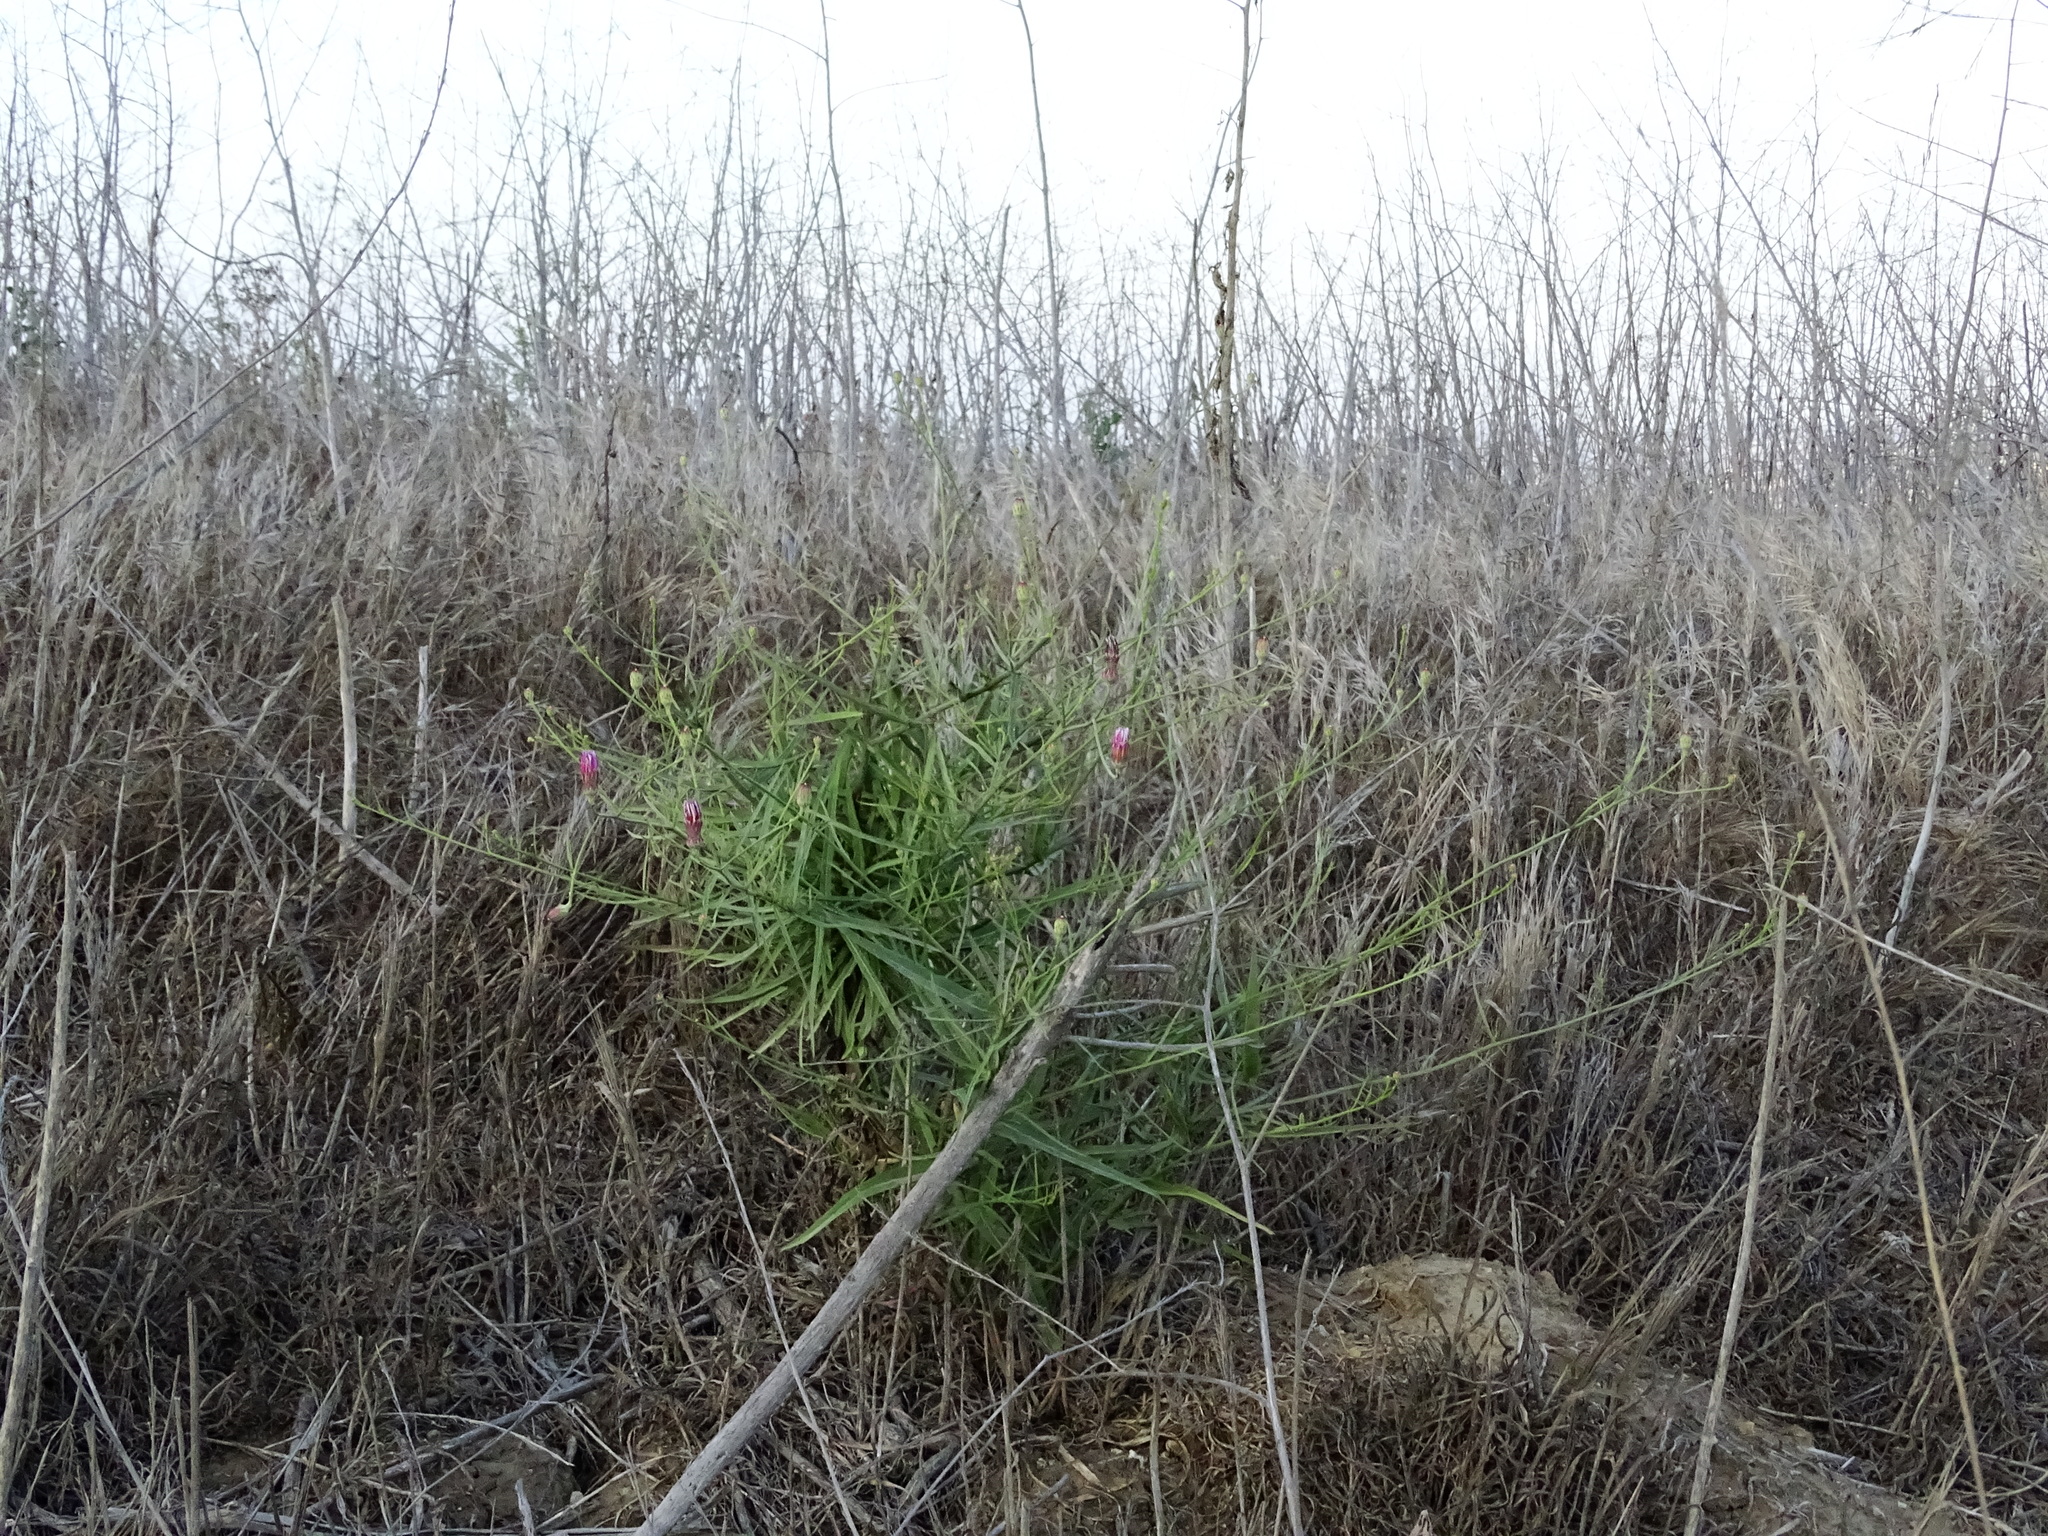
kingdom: Plantae
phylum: Tracheophyta
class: Magnoliopsida
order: Asterales
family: Asteraceae
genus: Malacothrix
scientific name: Malacothrix saxatilis
